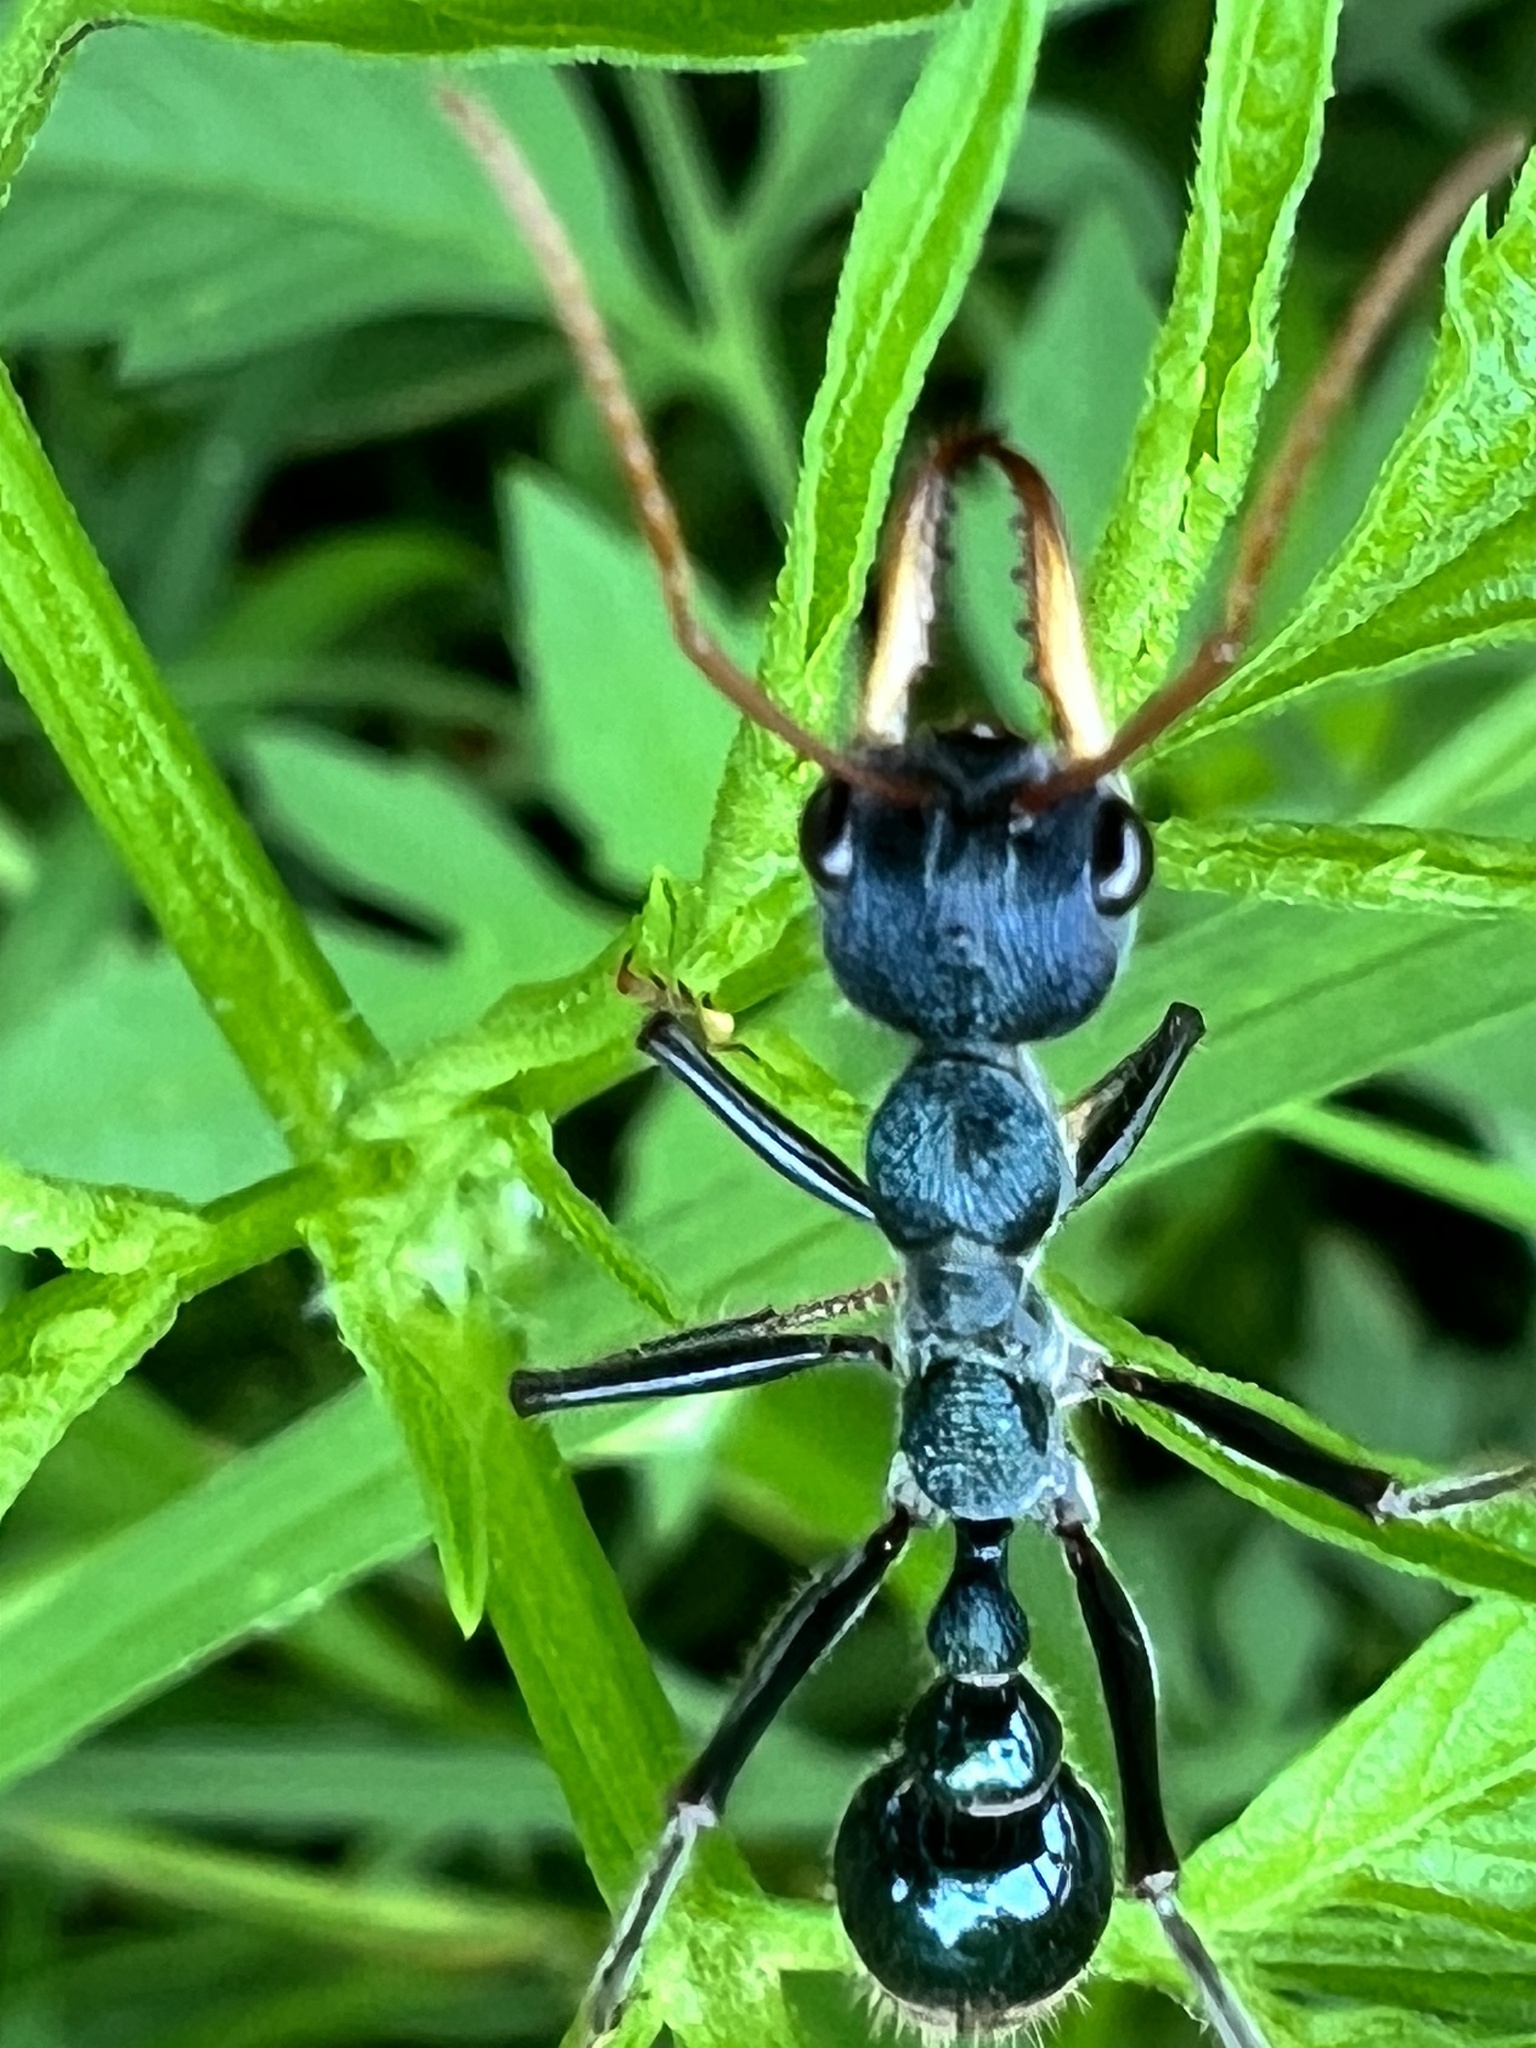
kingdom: Animalia
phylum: Arthropoda
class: Insecta
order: Hymenoptera
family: Formicidae
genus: Myrmecia
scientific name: Myrmecia tarsata
